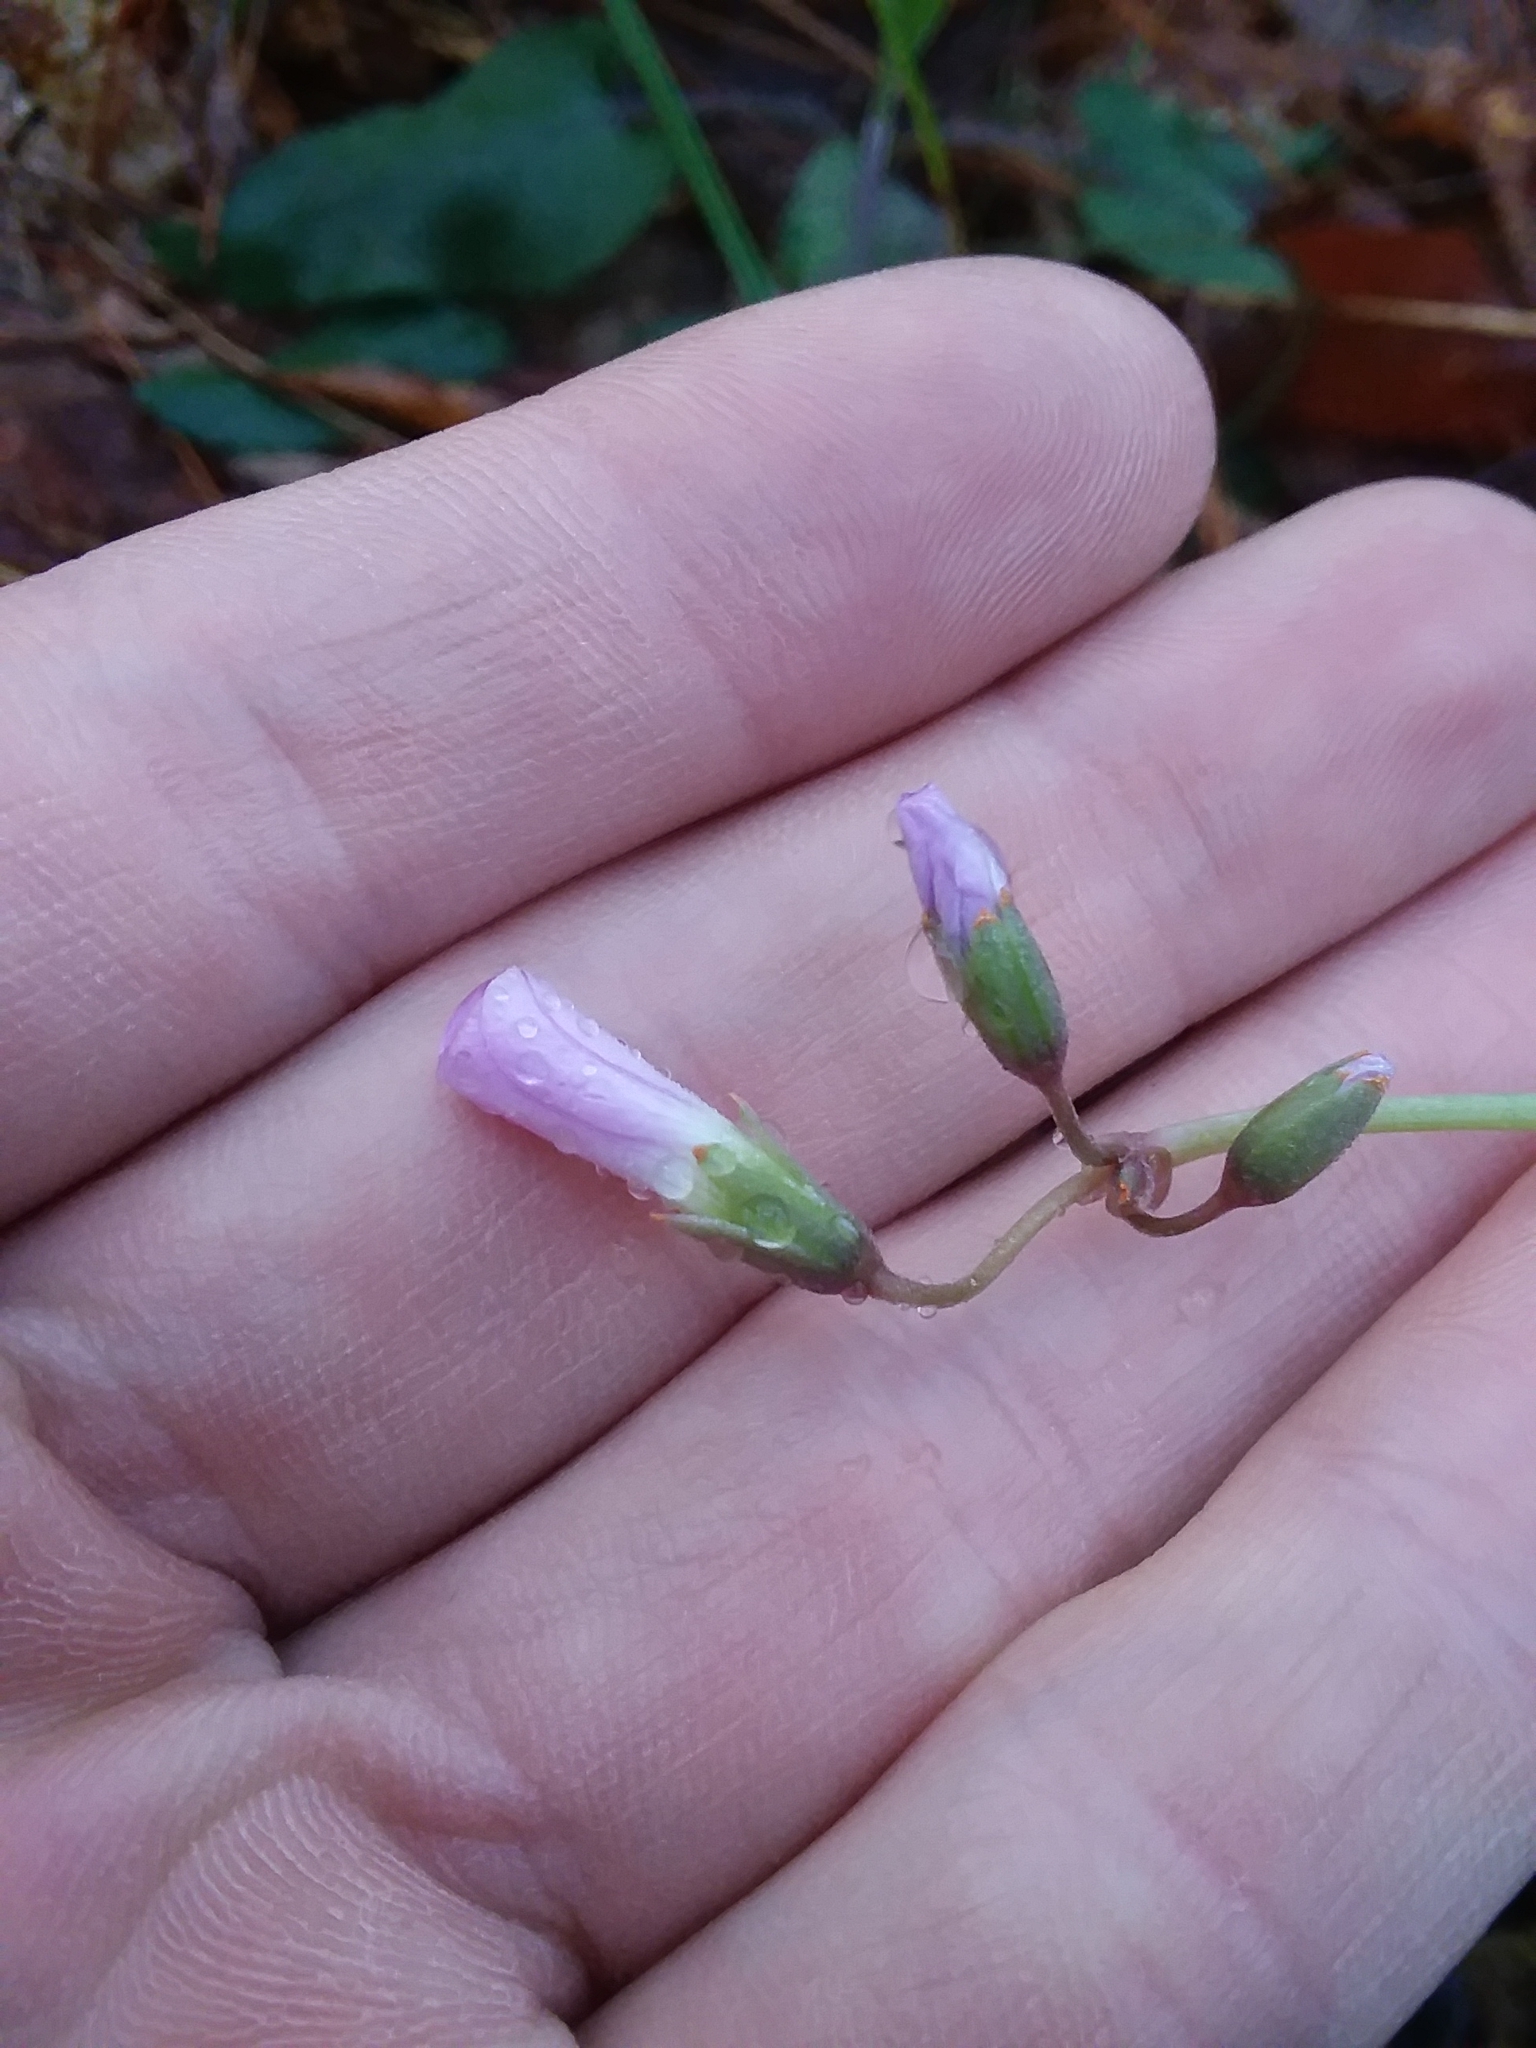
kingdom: Plantae
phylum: Tracheophyta
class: Magnoliopsida
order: Oxalidales
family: Oxalidaceae
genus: Oxalis
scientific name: Oxalis violacea
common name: Violet wood-sorrel
